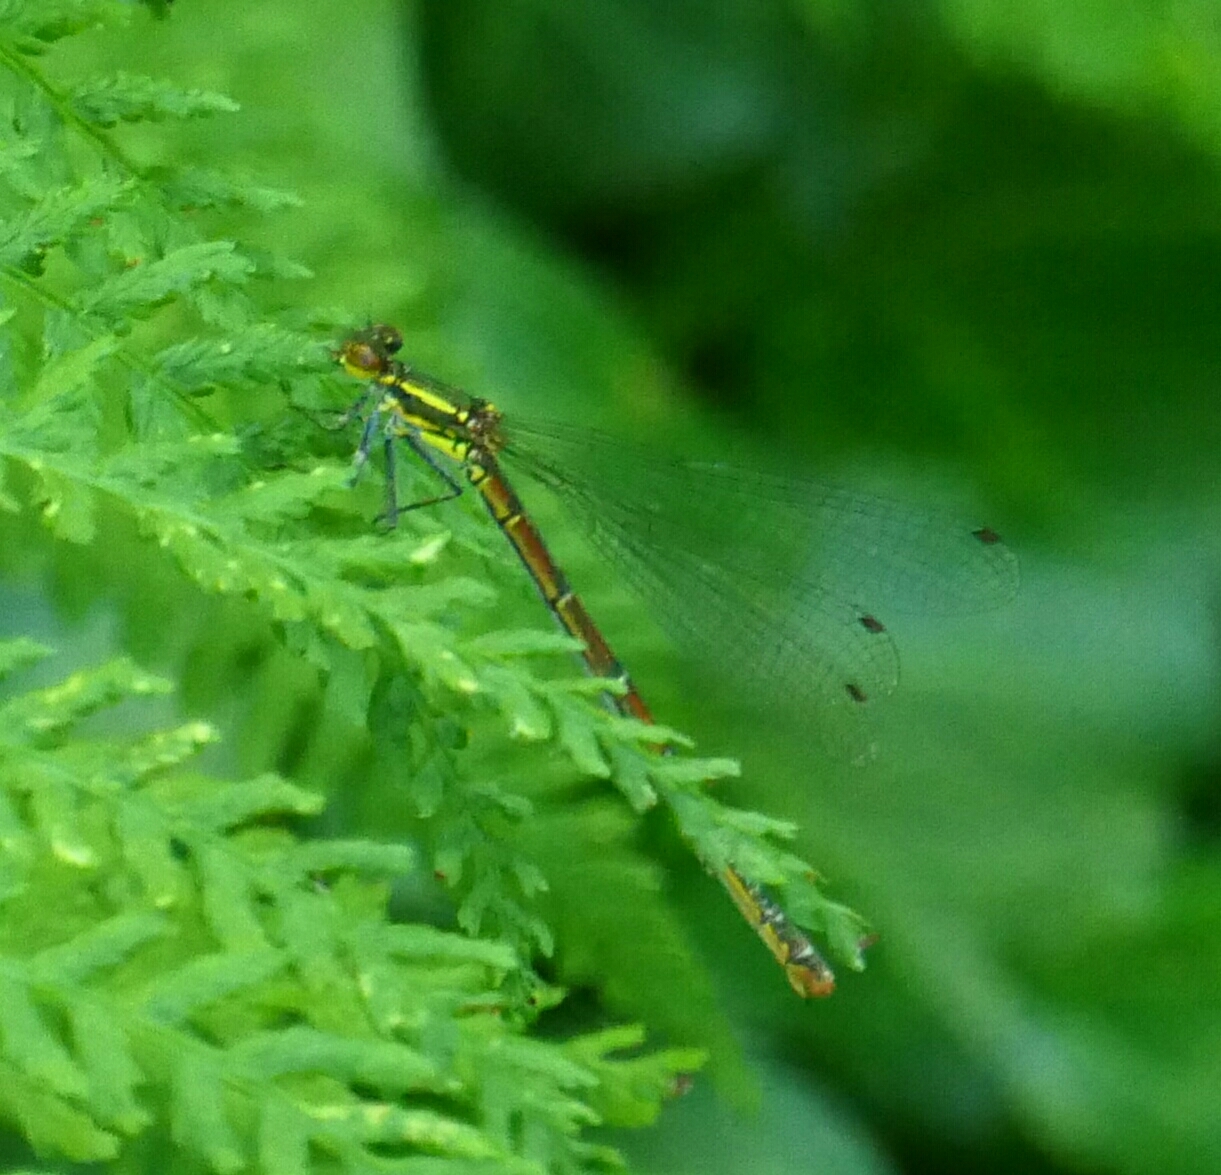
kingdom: Animalia
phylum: Arthropoda
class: Insecta
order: Odonata
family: Coenagrionidae
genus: Pyrrhosoma
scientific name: Pyrrhosoma nymphula
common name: Large red damsel
